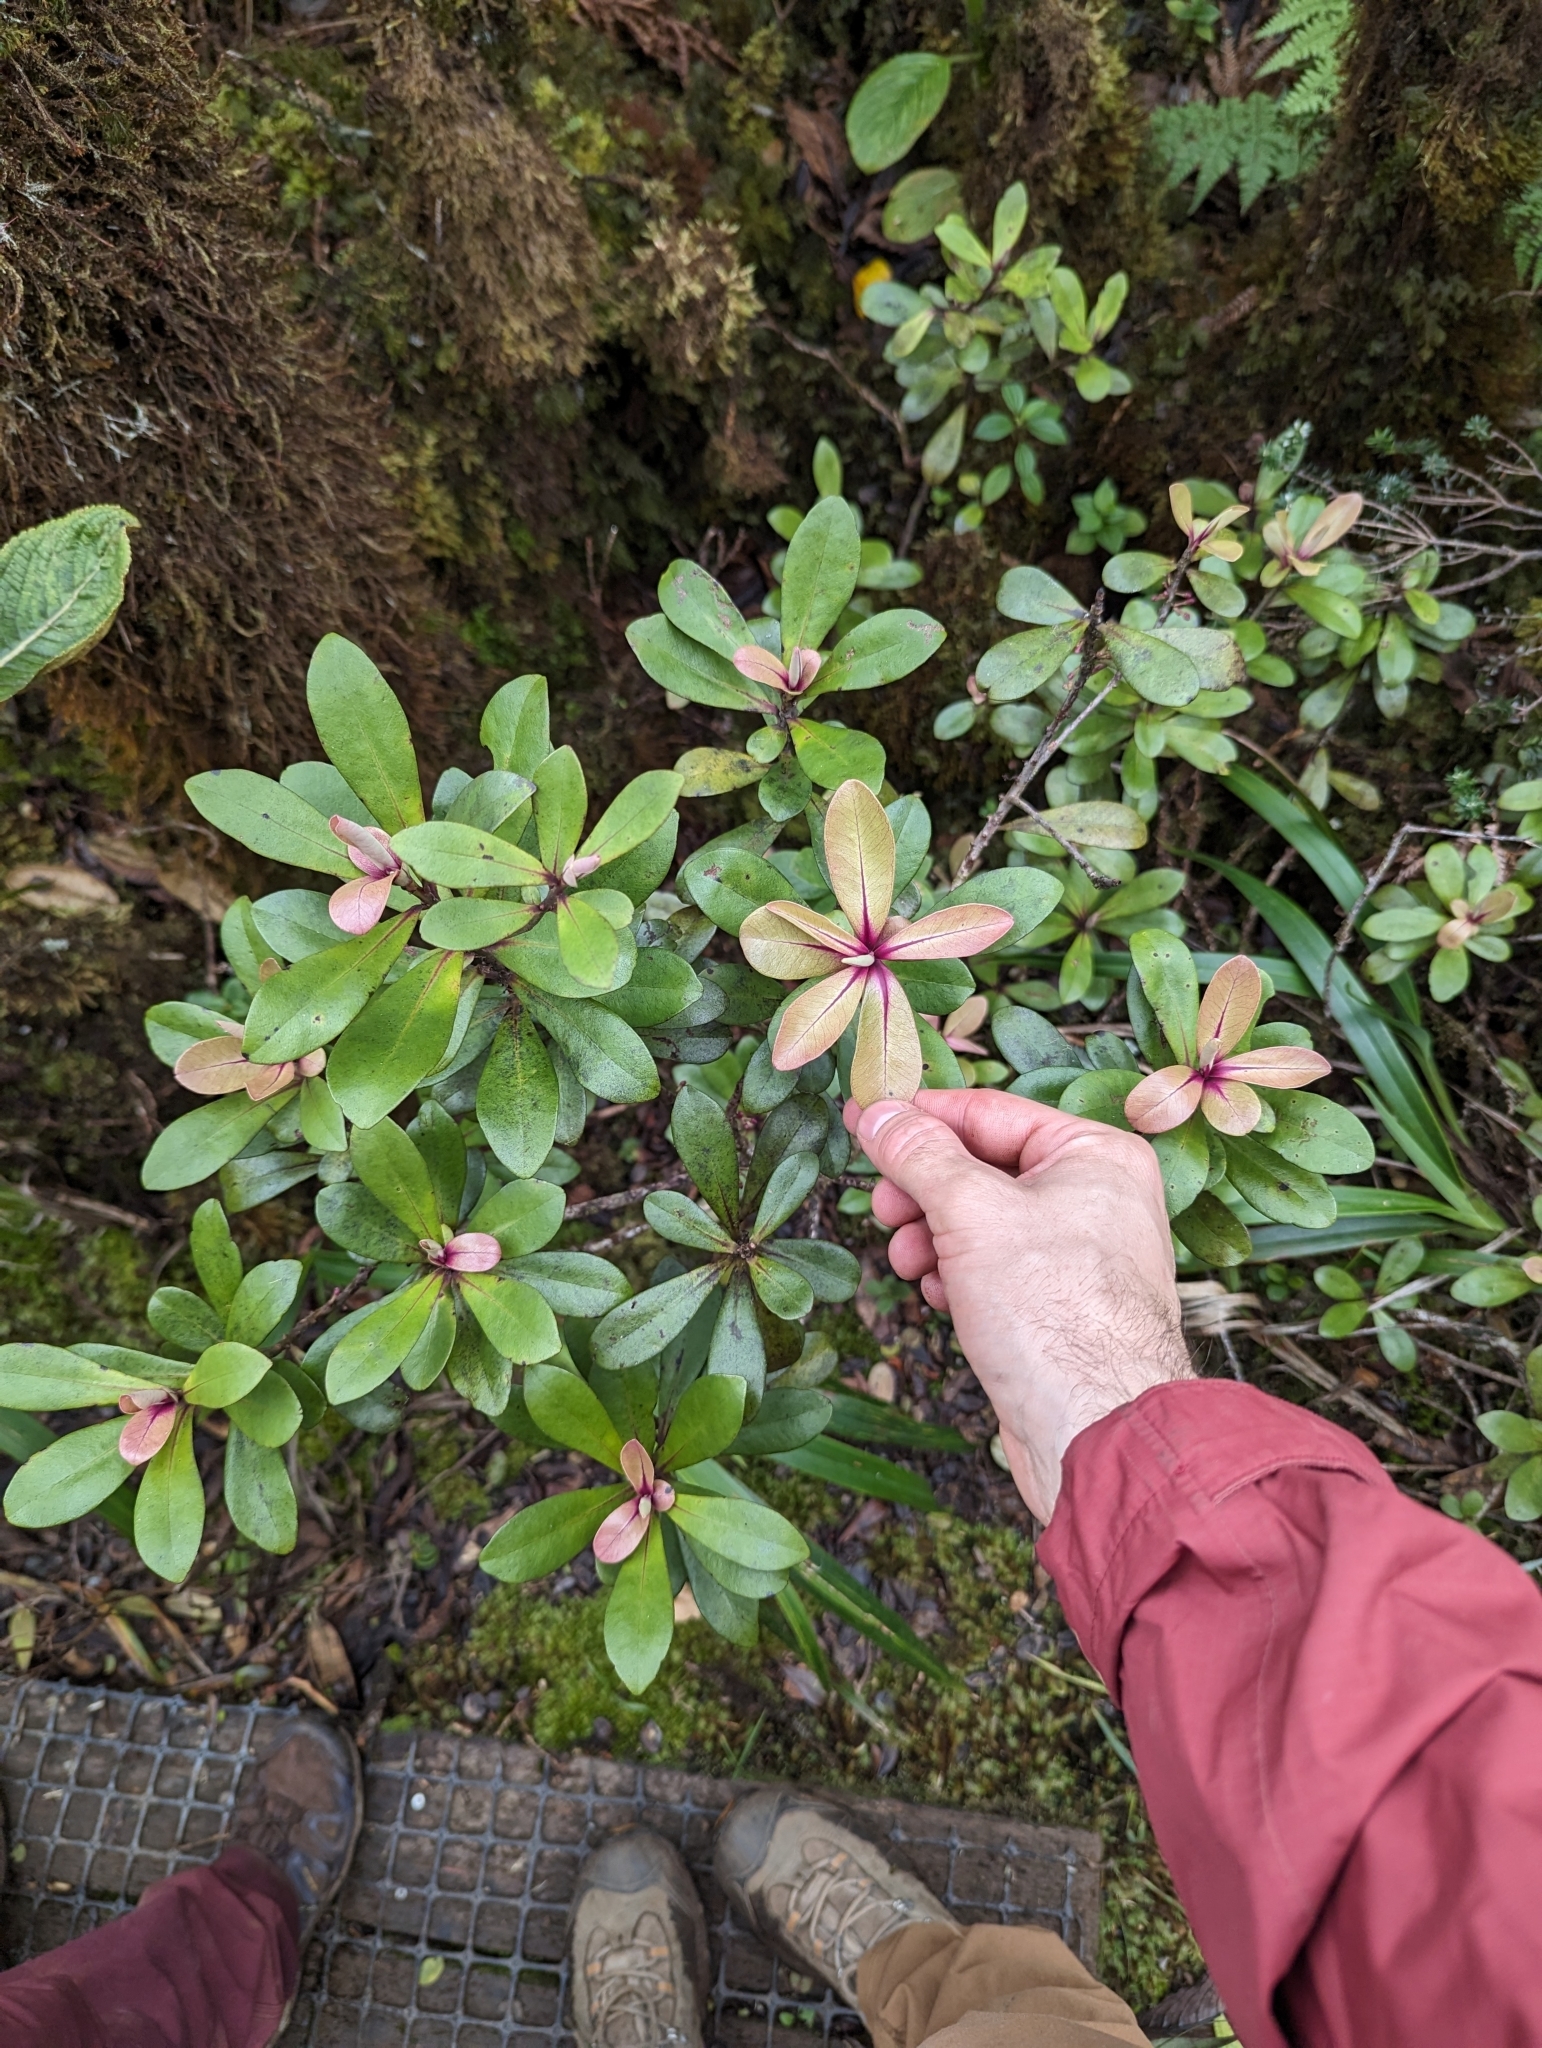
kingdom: Plantae
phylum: Tracheophyta
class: Magnoliopsida
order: Ericales
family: Primulaceae
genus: Myrsine
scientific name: Myrsine lessertiana
